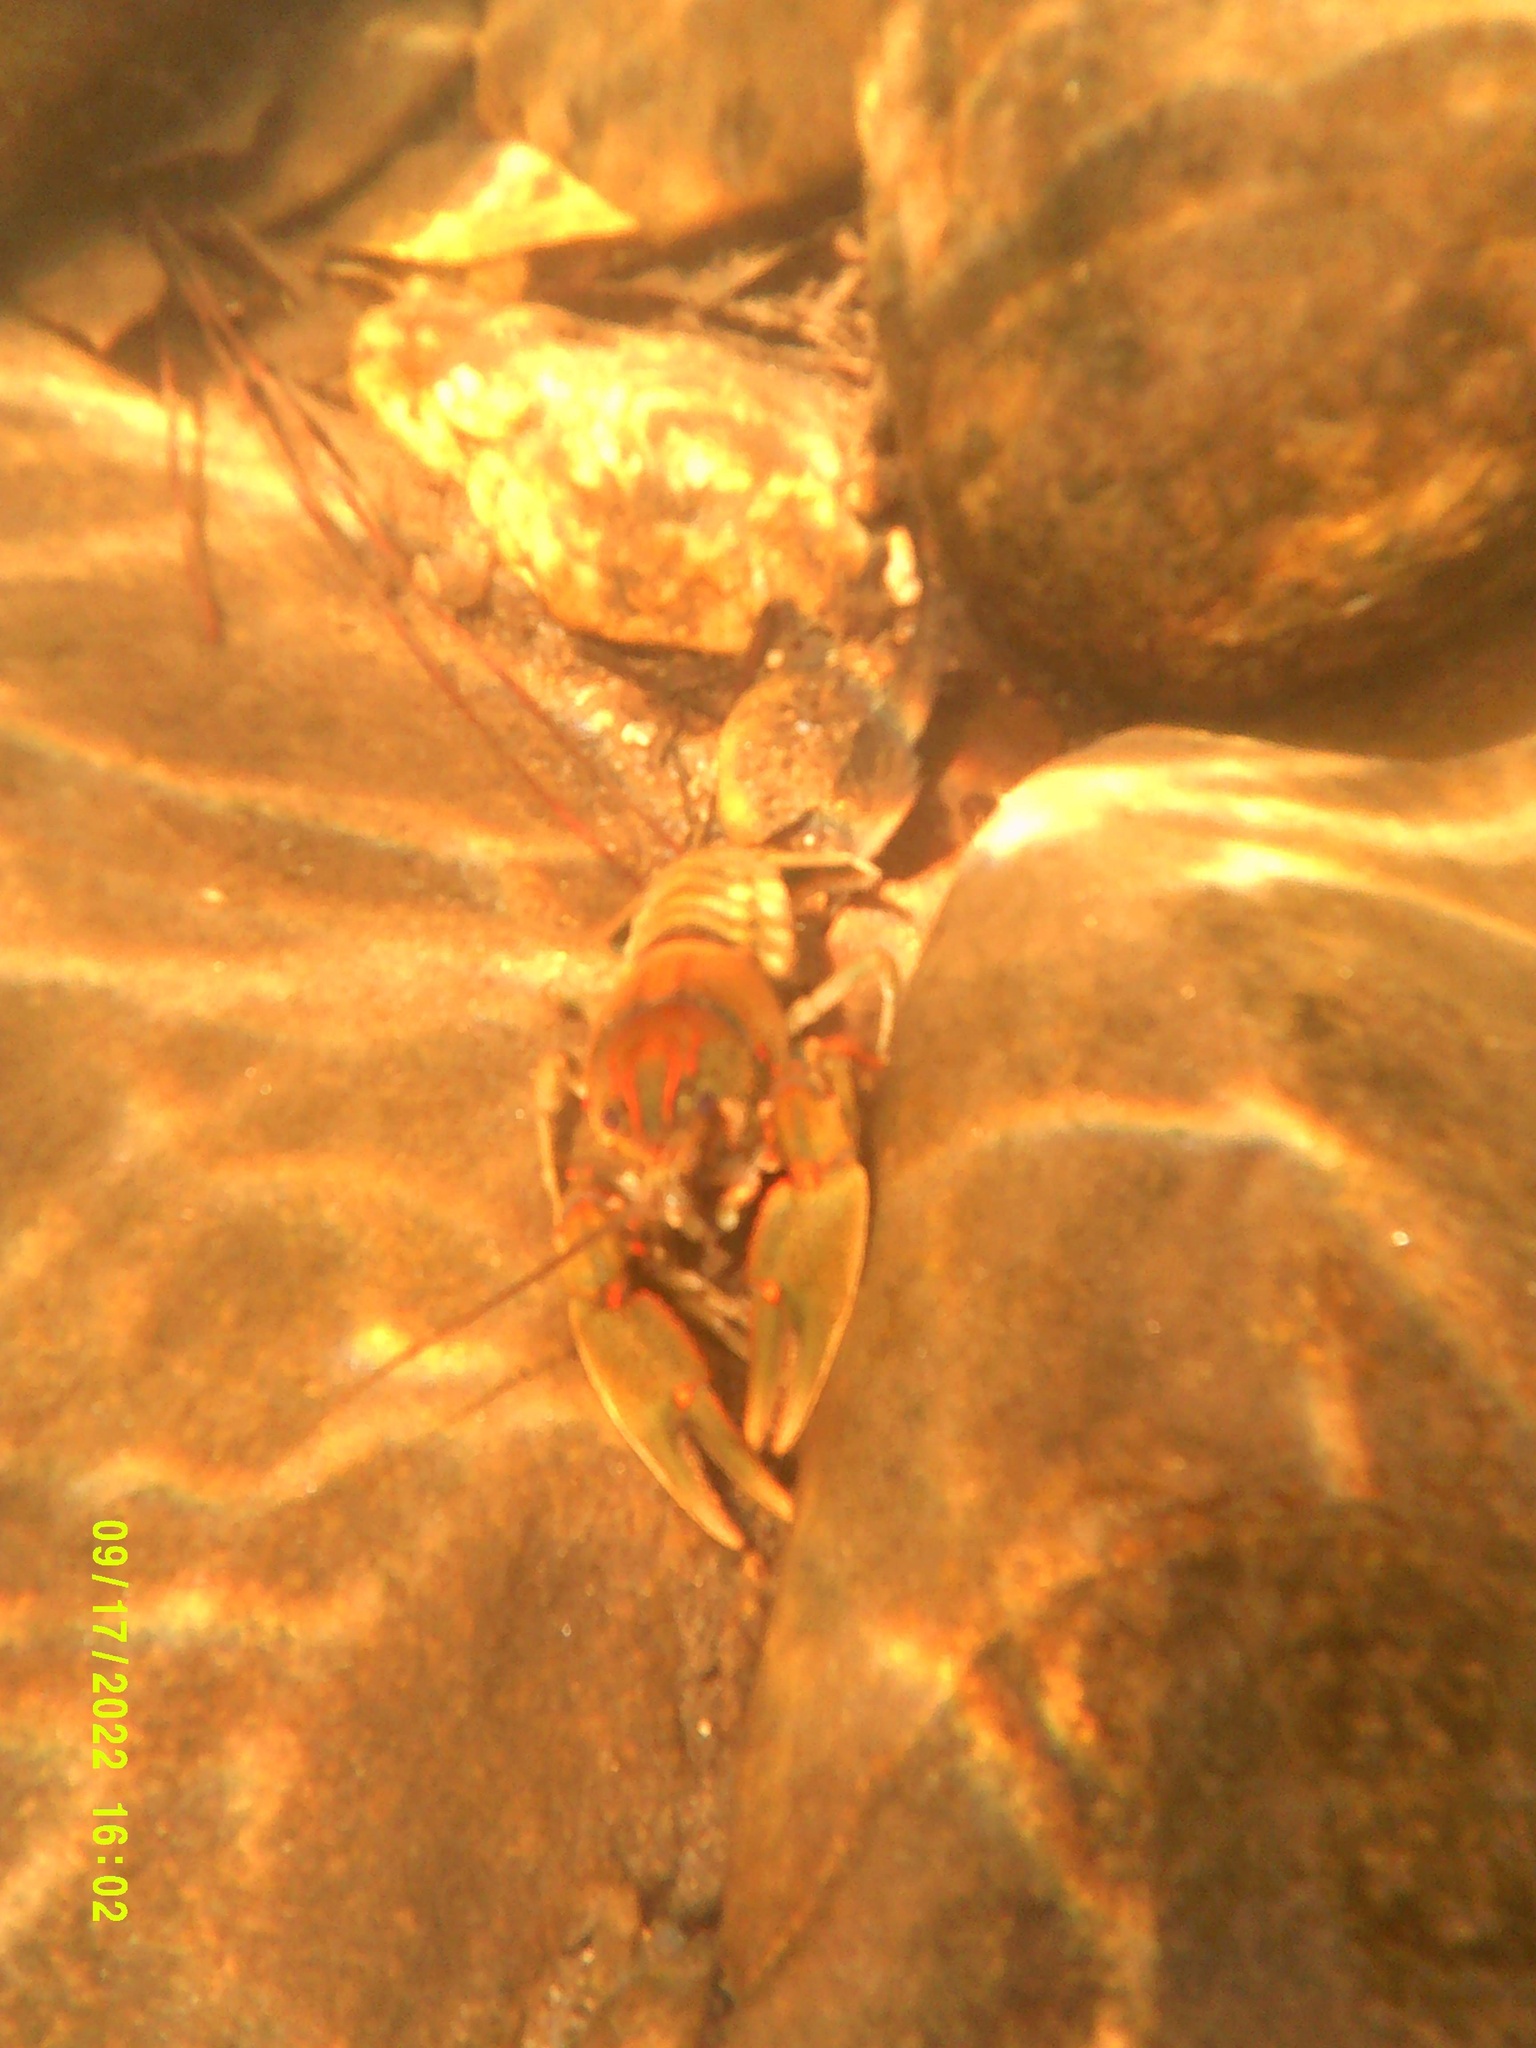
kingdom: Animalia
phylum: Arthropoda
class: Malacostraca
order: Decapoda
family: Cambaridae
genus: Cambarus
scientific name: Cambarus coosae
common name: Coosa crayfish
